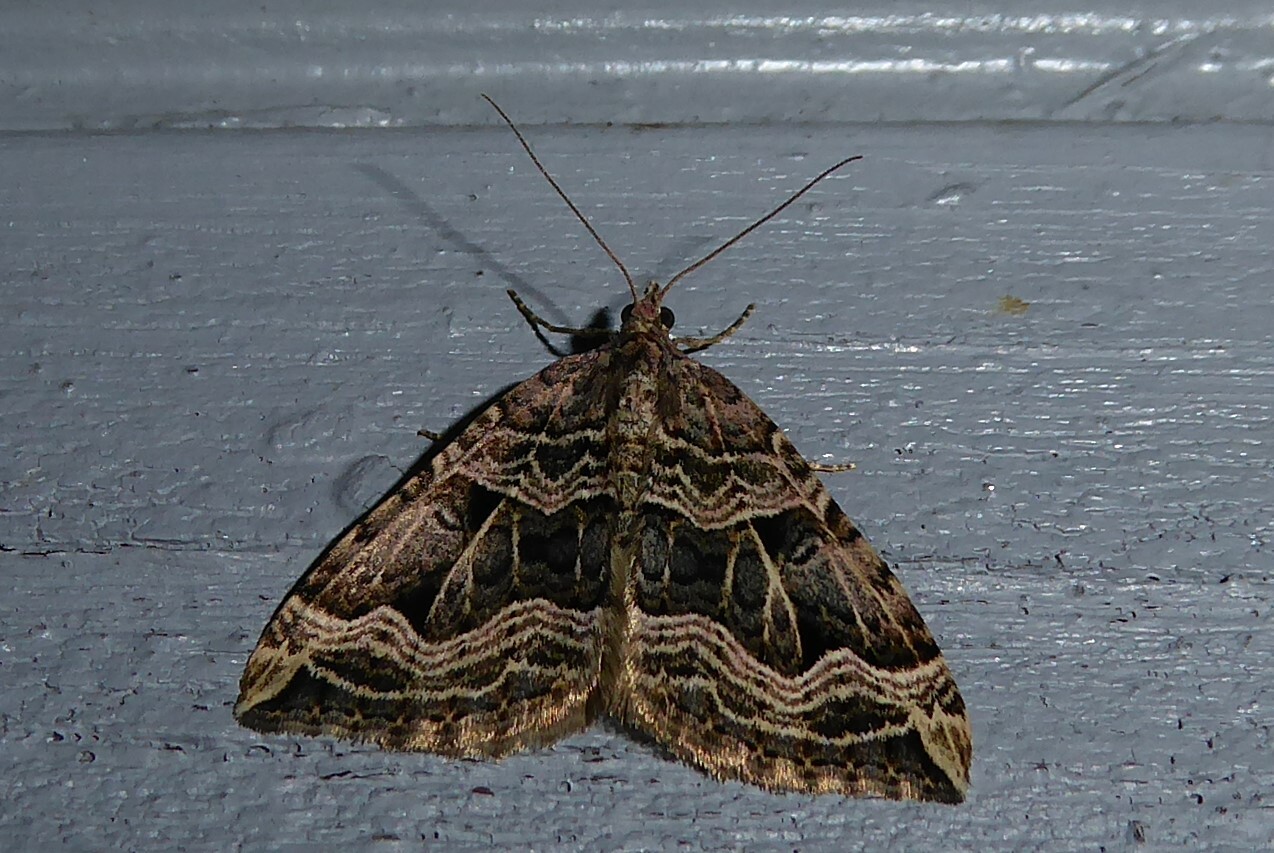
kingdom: Animalia
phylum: Arthropoda
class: Insecta
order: Lepidoptera
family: Geometridae
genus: Xanthorhoe
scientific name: Xanthorhoe semifissata
